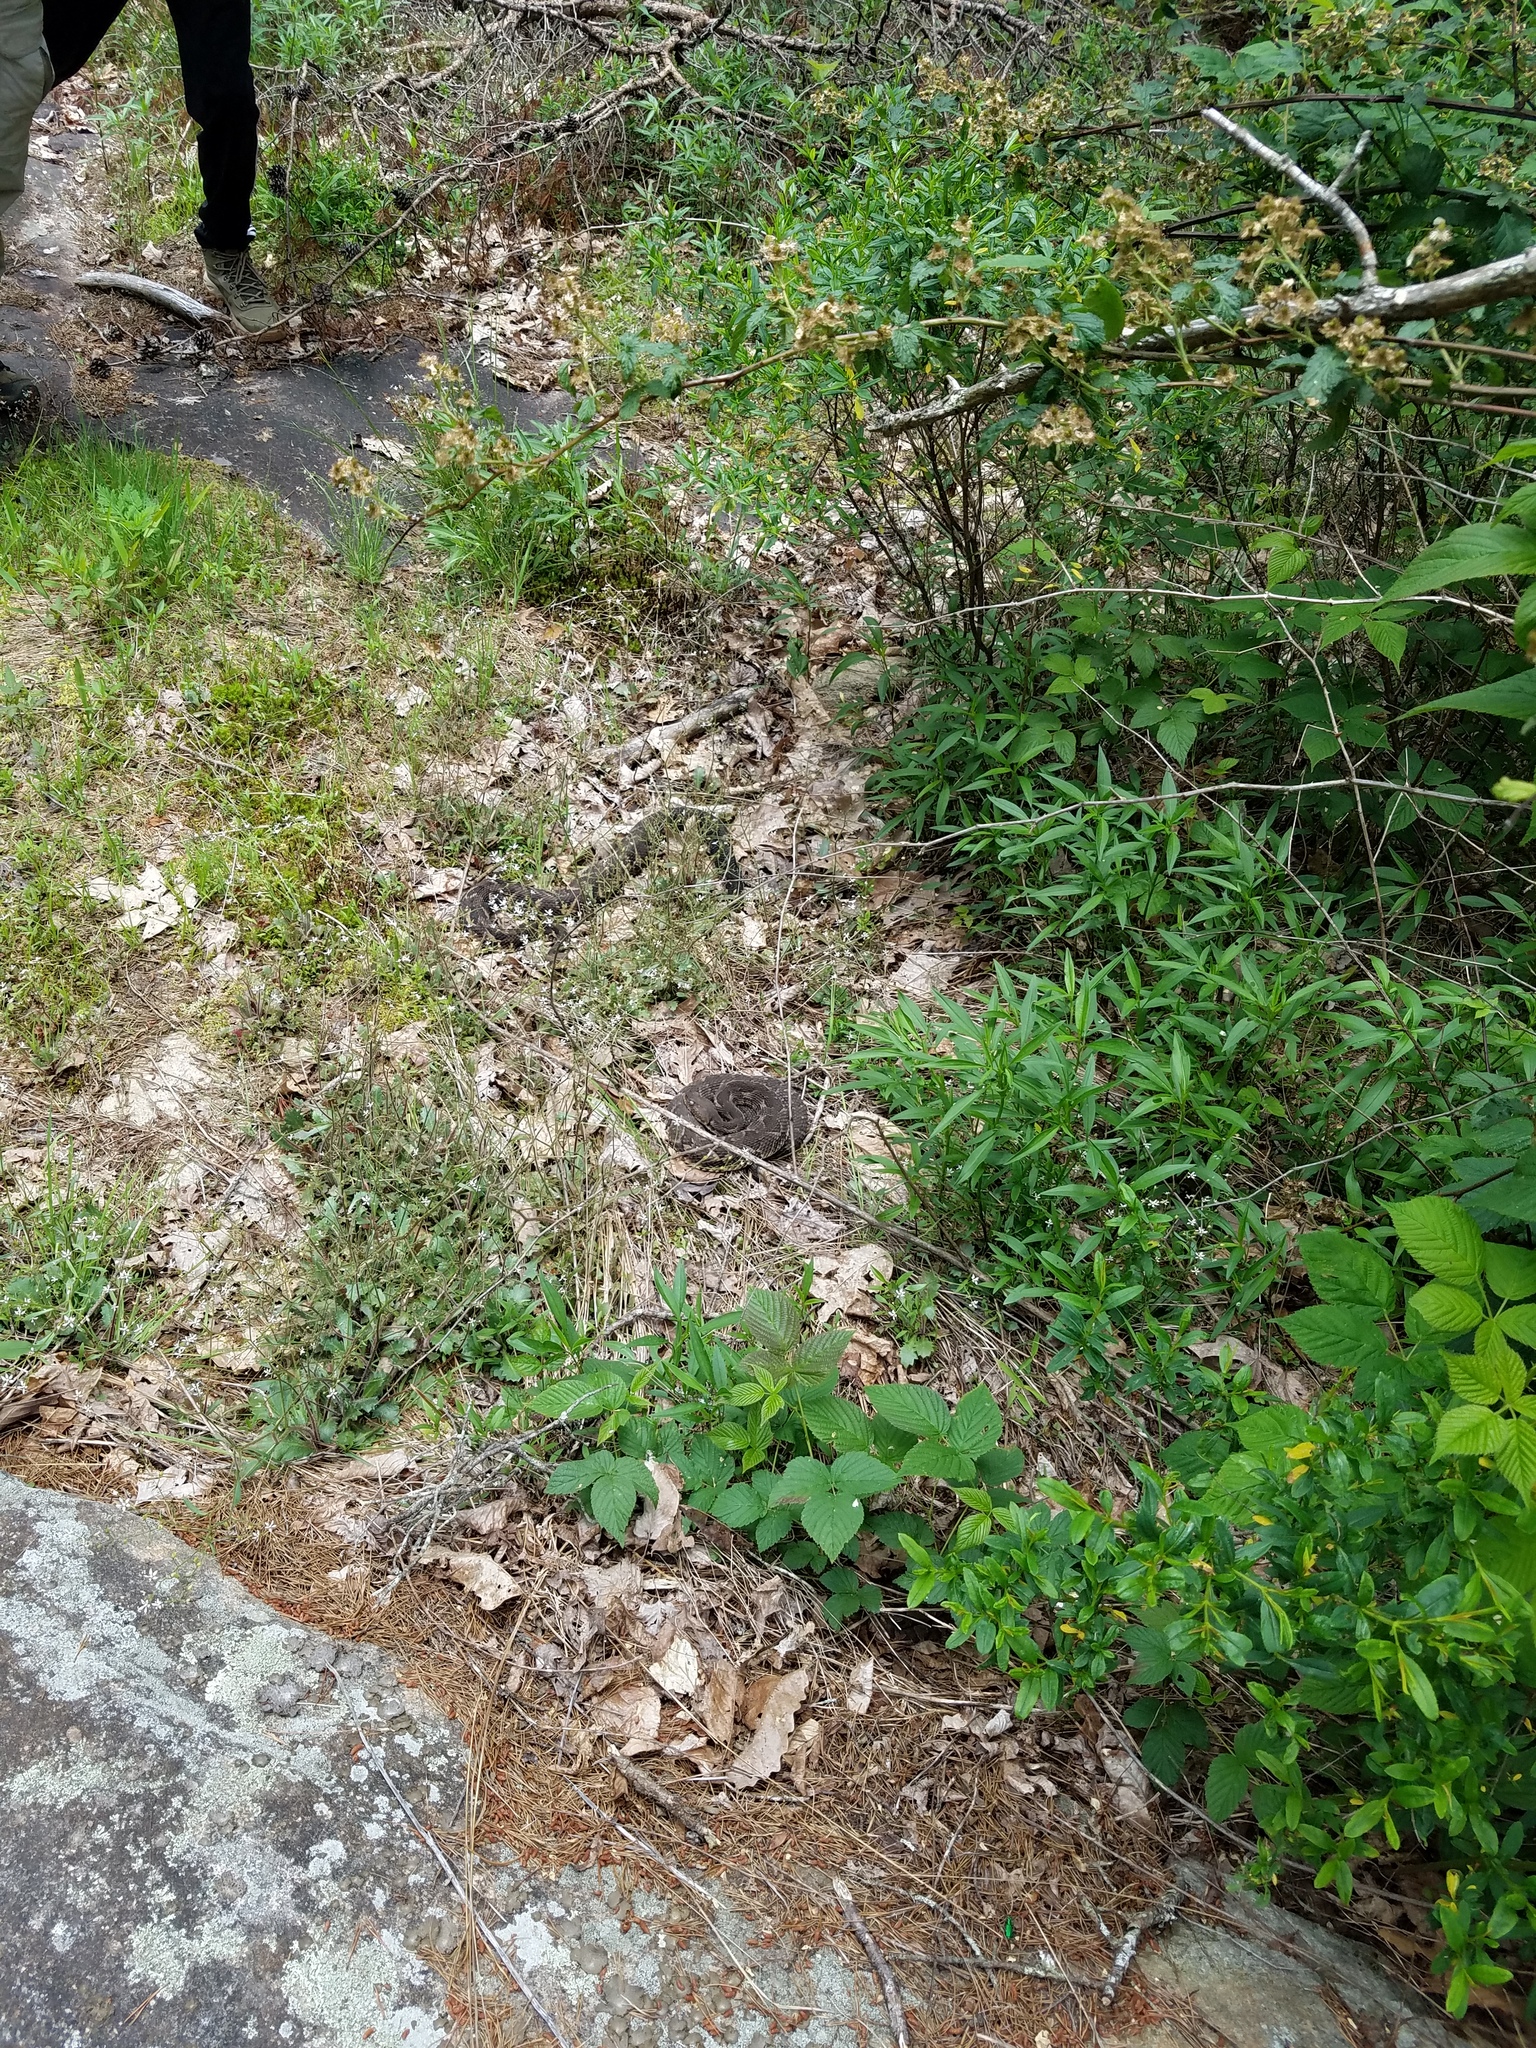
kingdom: Animalia
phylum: Chordata
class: Squamata
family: Viperidae
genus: Crotalus
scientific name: Crotalus horridus
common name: Timber rattlesnake
